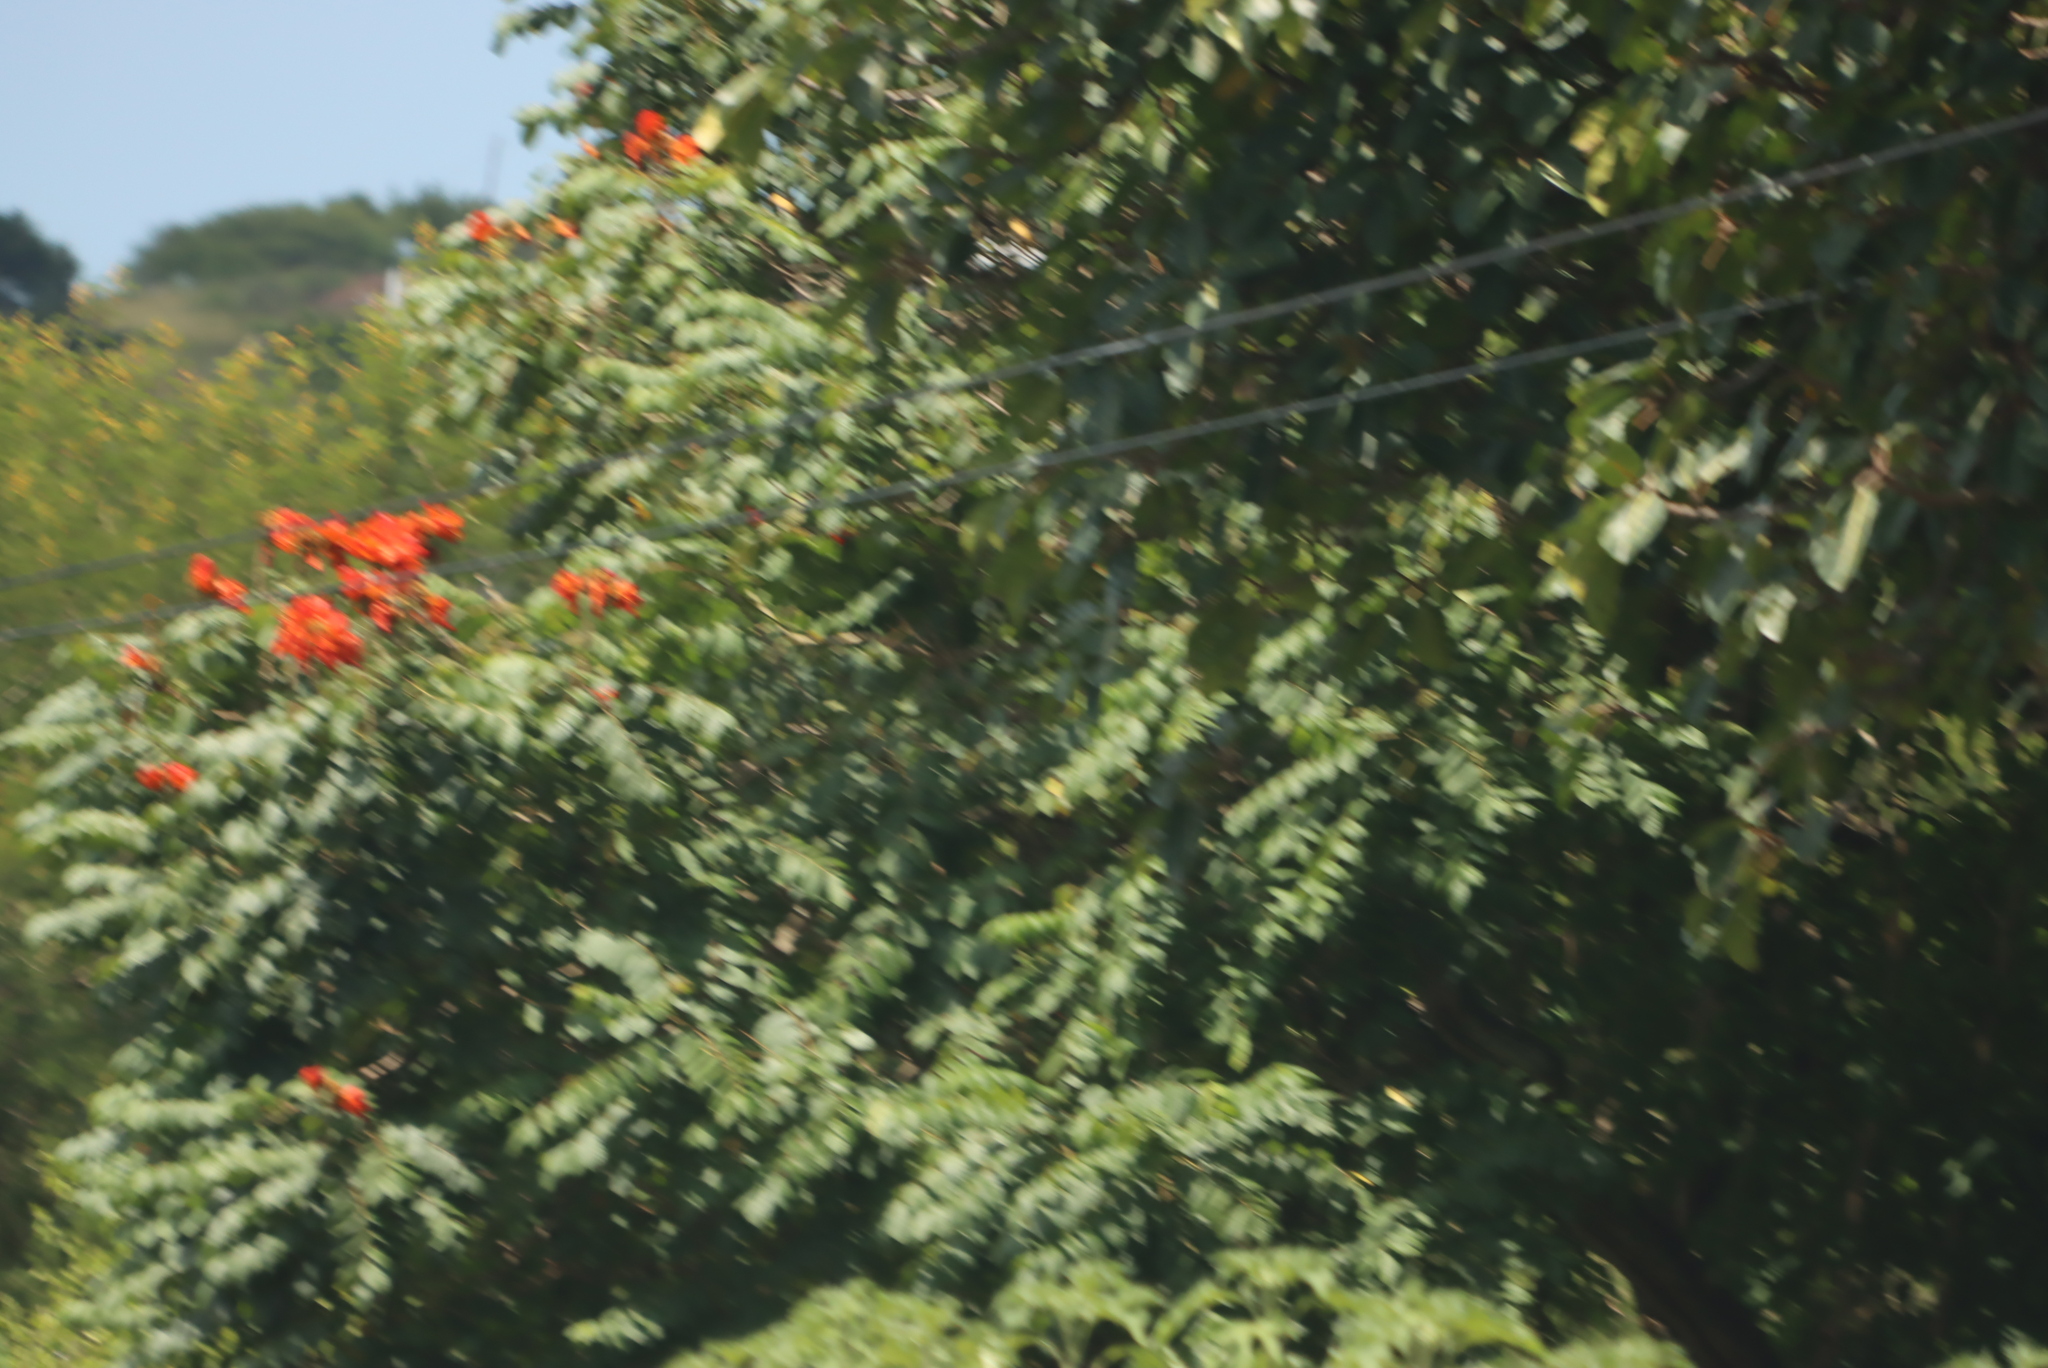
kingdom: Plantae
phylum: Tracheophyta
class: Magnoliopsida
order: Lamiales
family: Bignoniaceae
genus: Spathodea
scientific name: Spathodea campanulata
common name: African tuliptree
